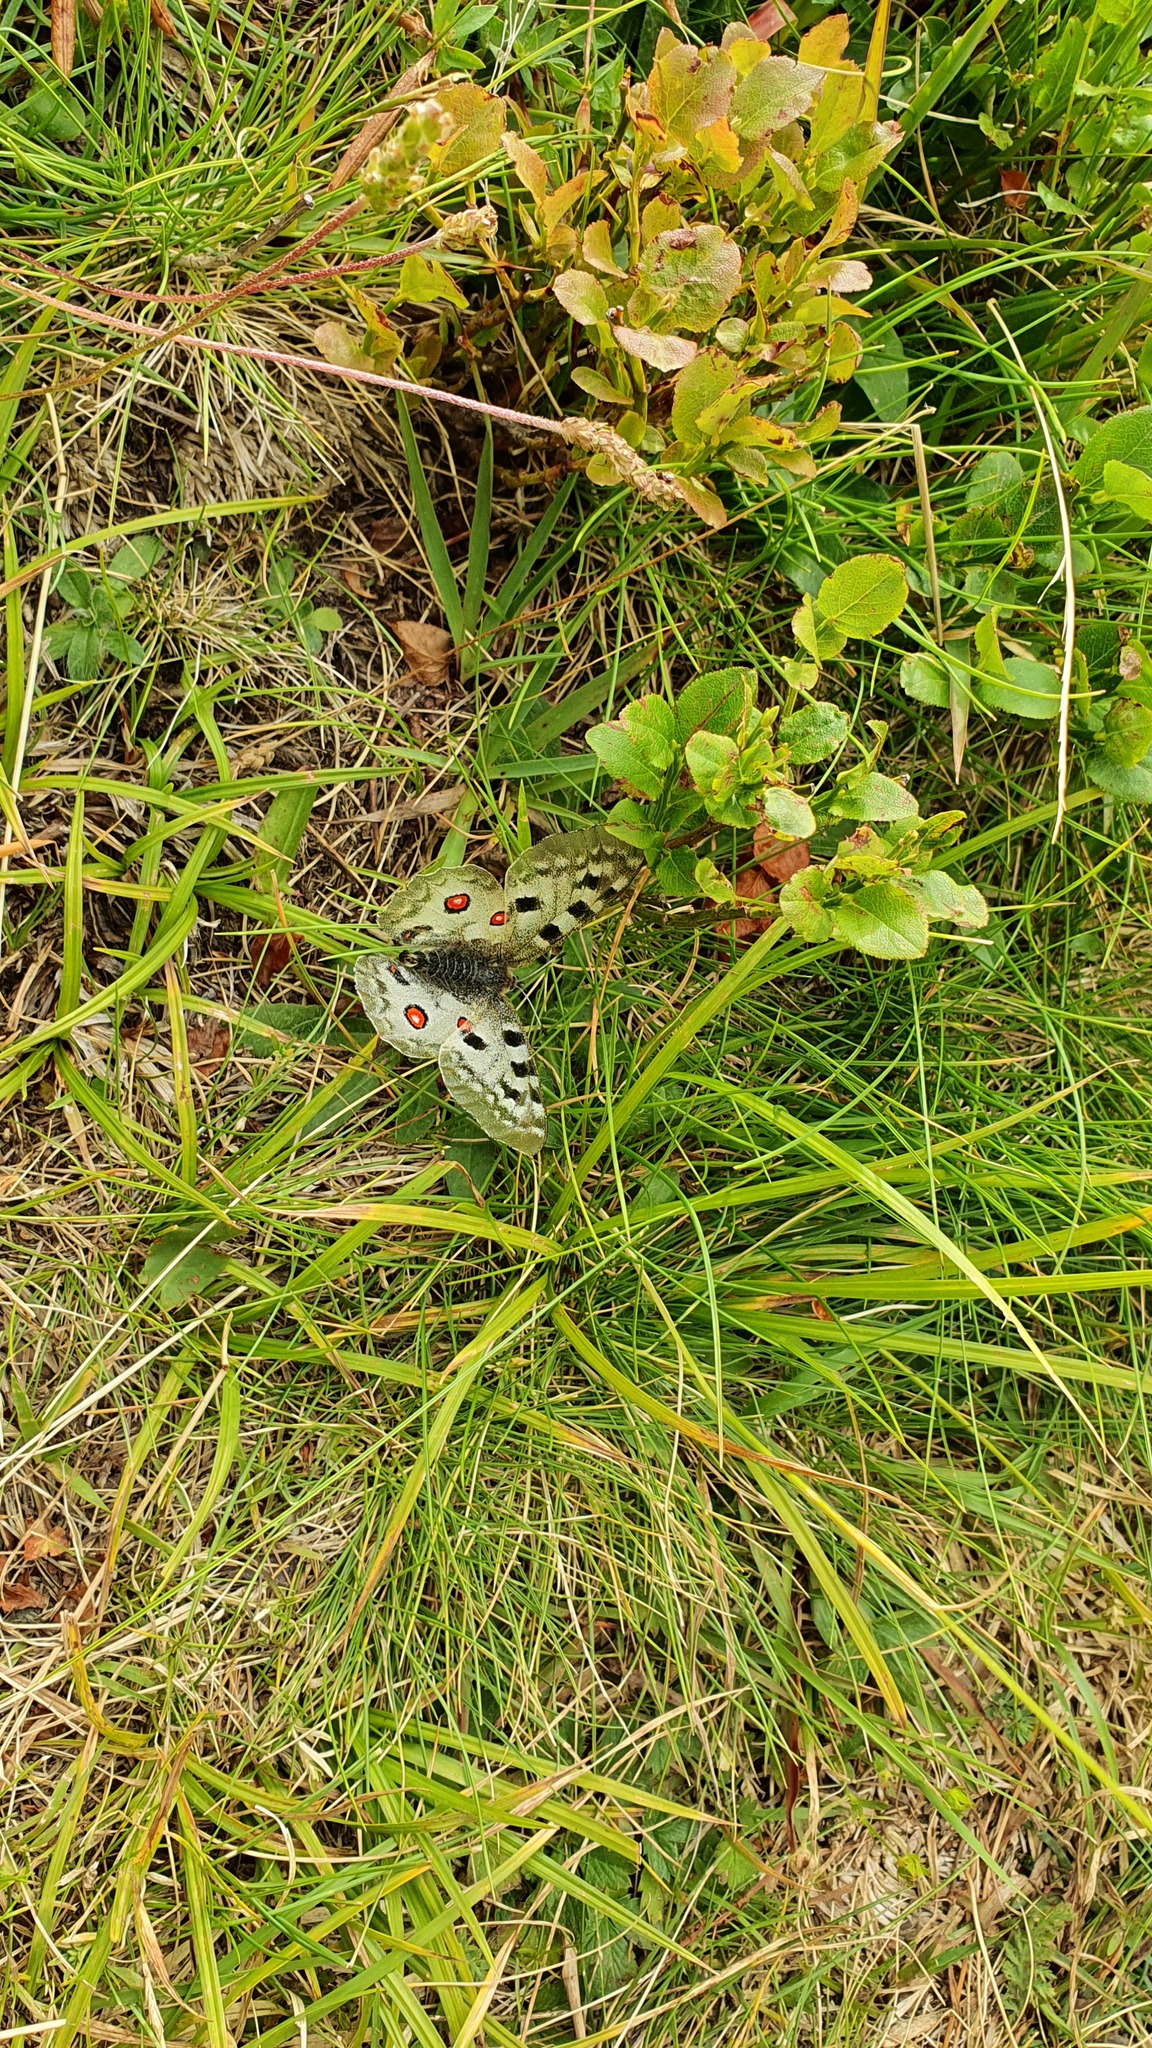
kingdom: Animalia
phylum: Arthropoda
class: Insecta
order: Lepidoptera
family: Papilionidae
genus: Parnassius
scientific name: Parnassius apollo
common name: Apollo
